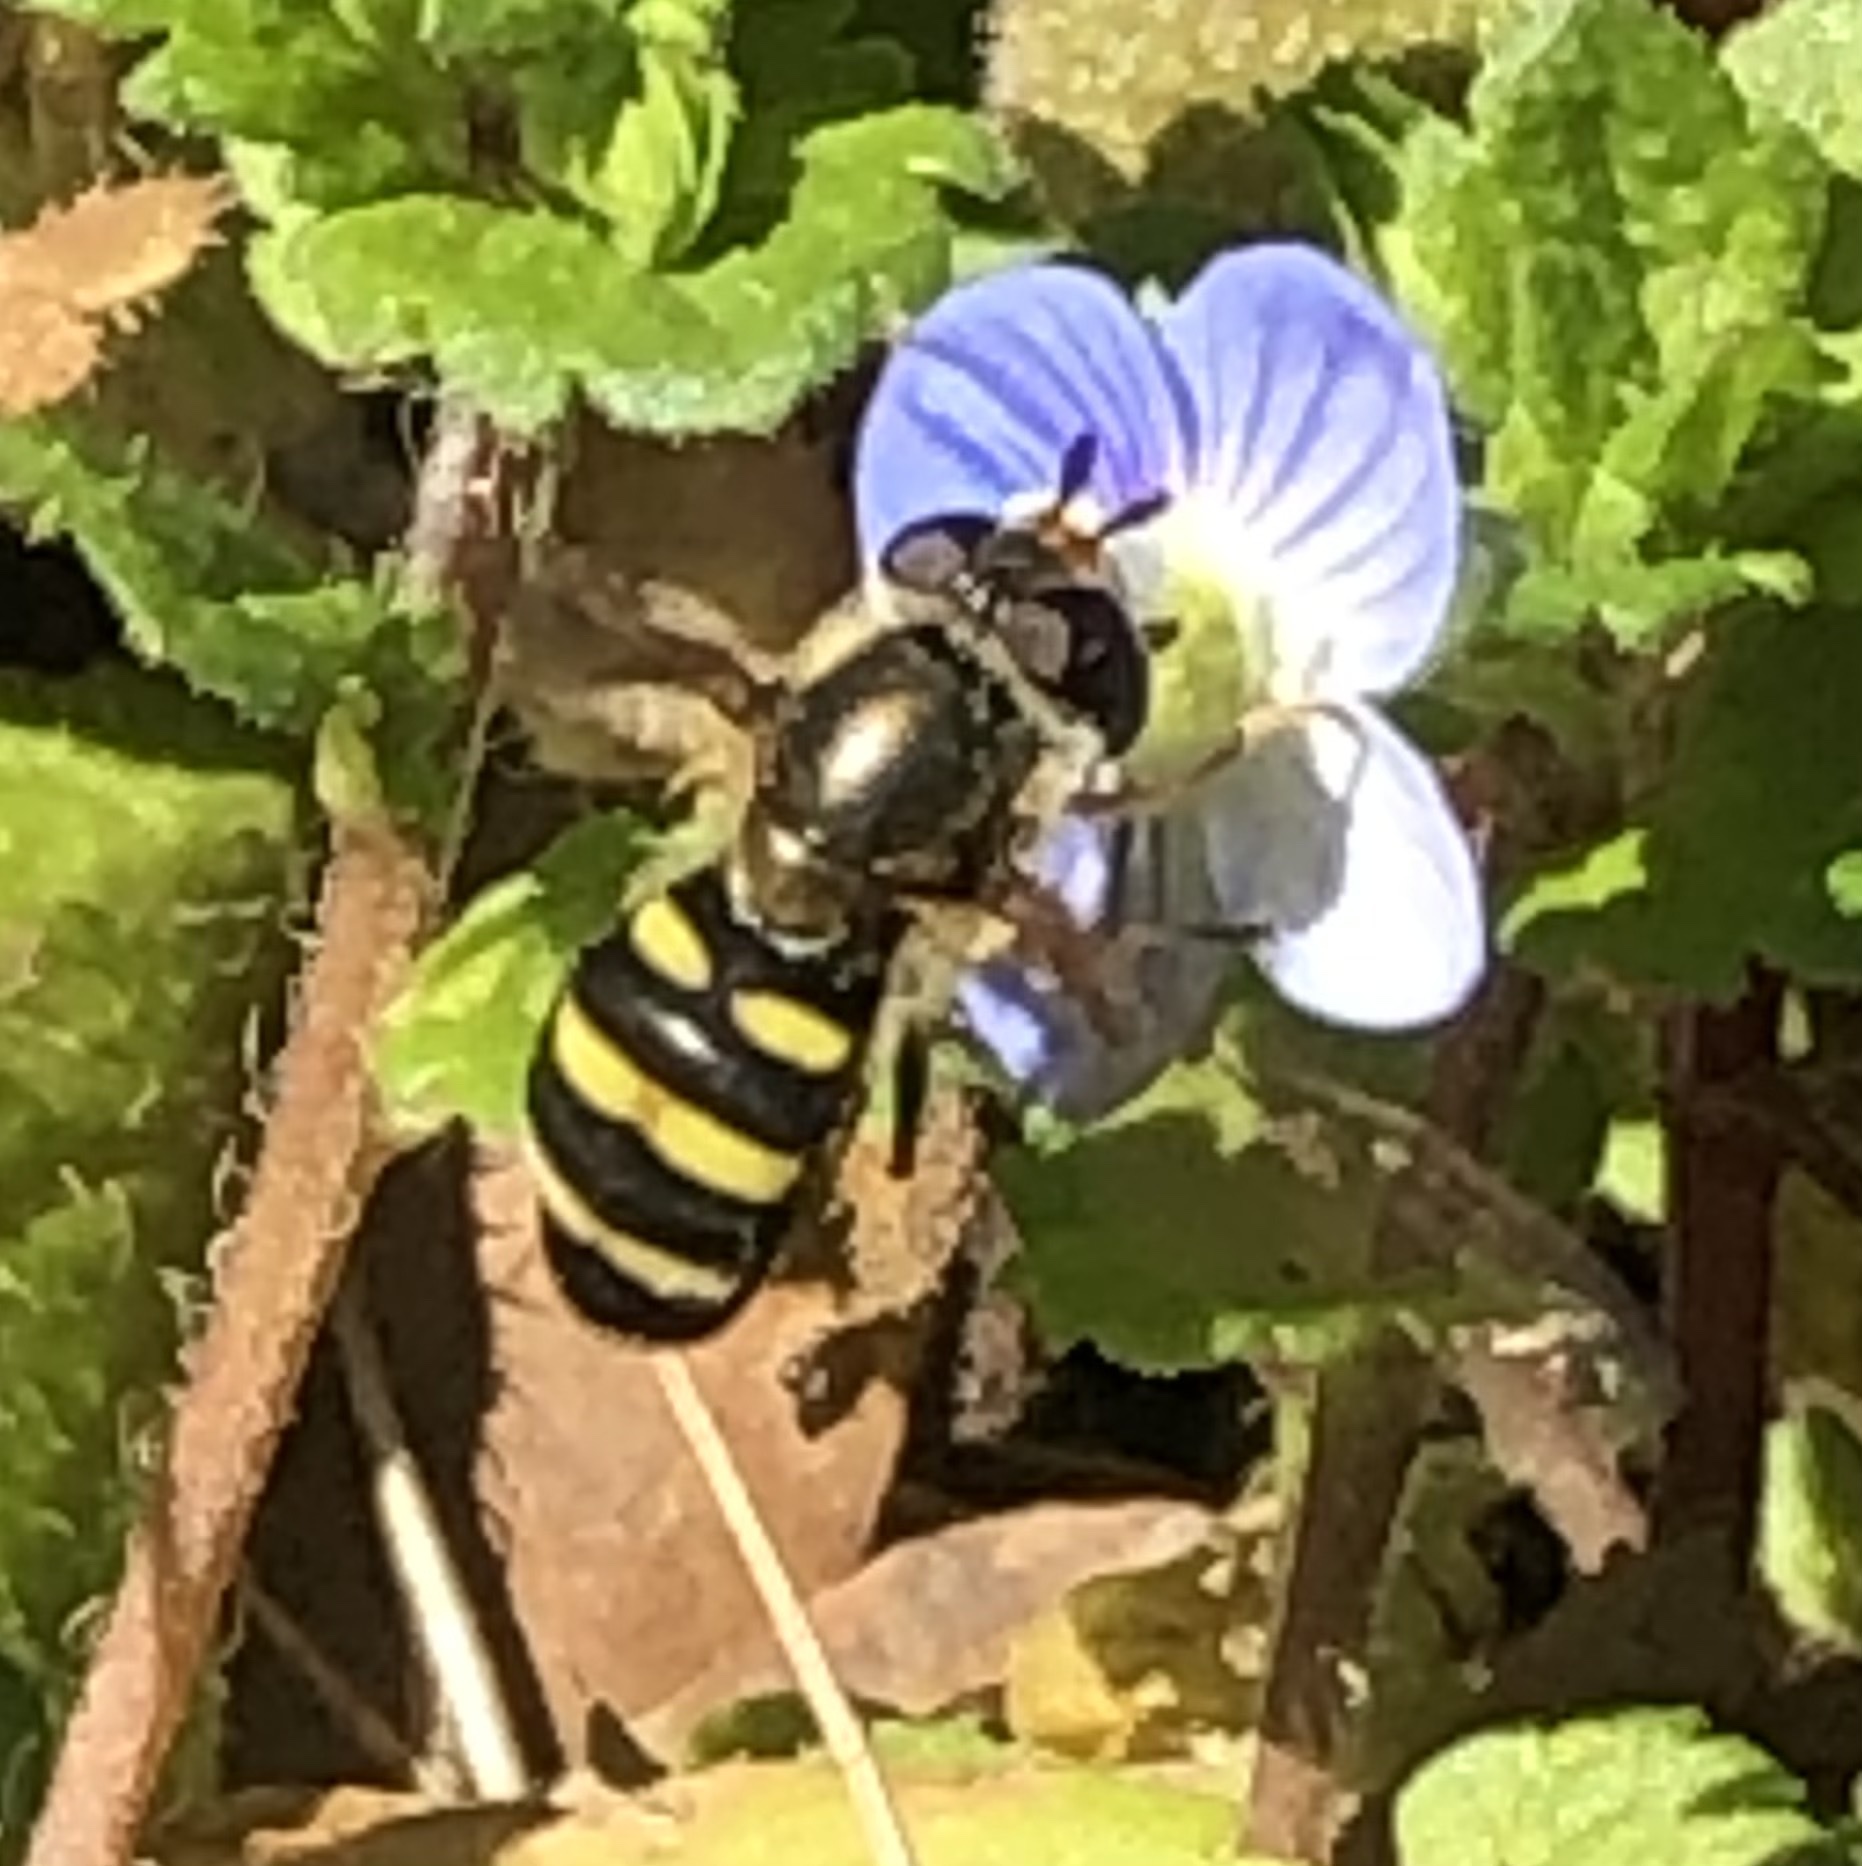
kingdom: Animalia
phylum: Arthropoda
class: Insecta
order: Diptera
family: Syrphidae
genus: Eupeodes
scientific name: Eupeodes
